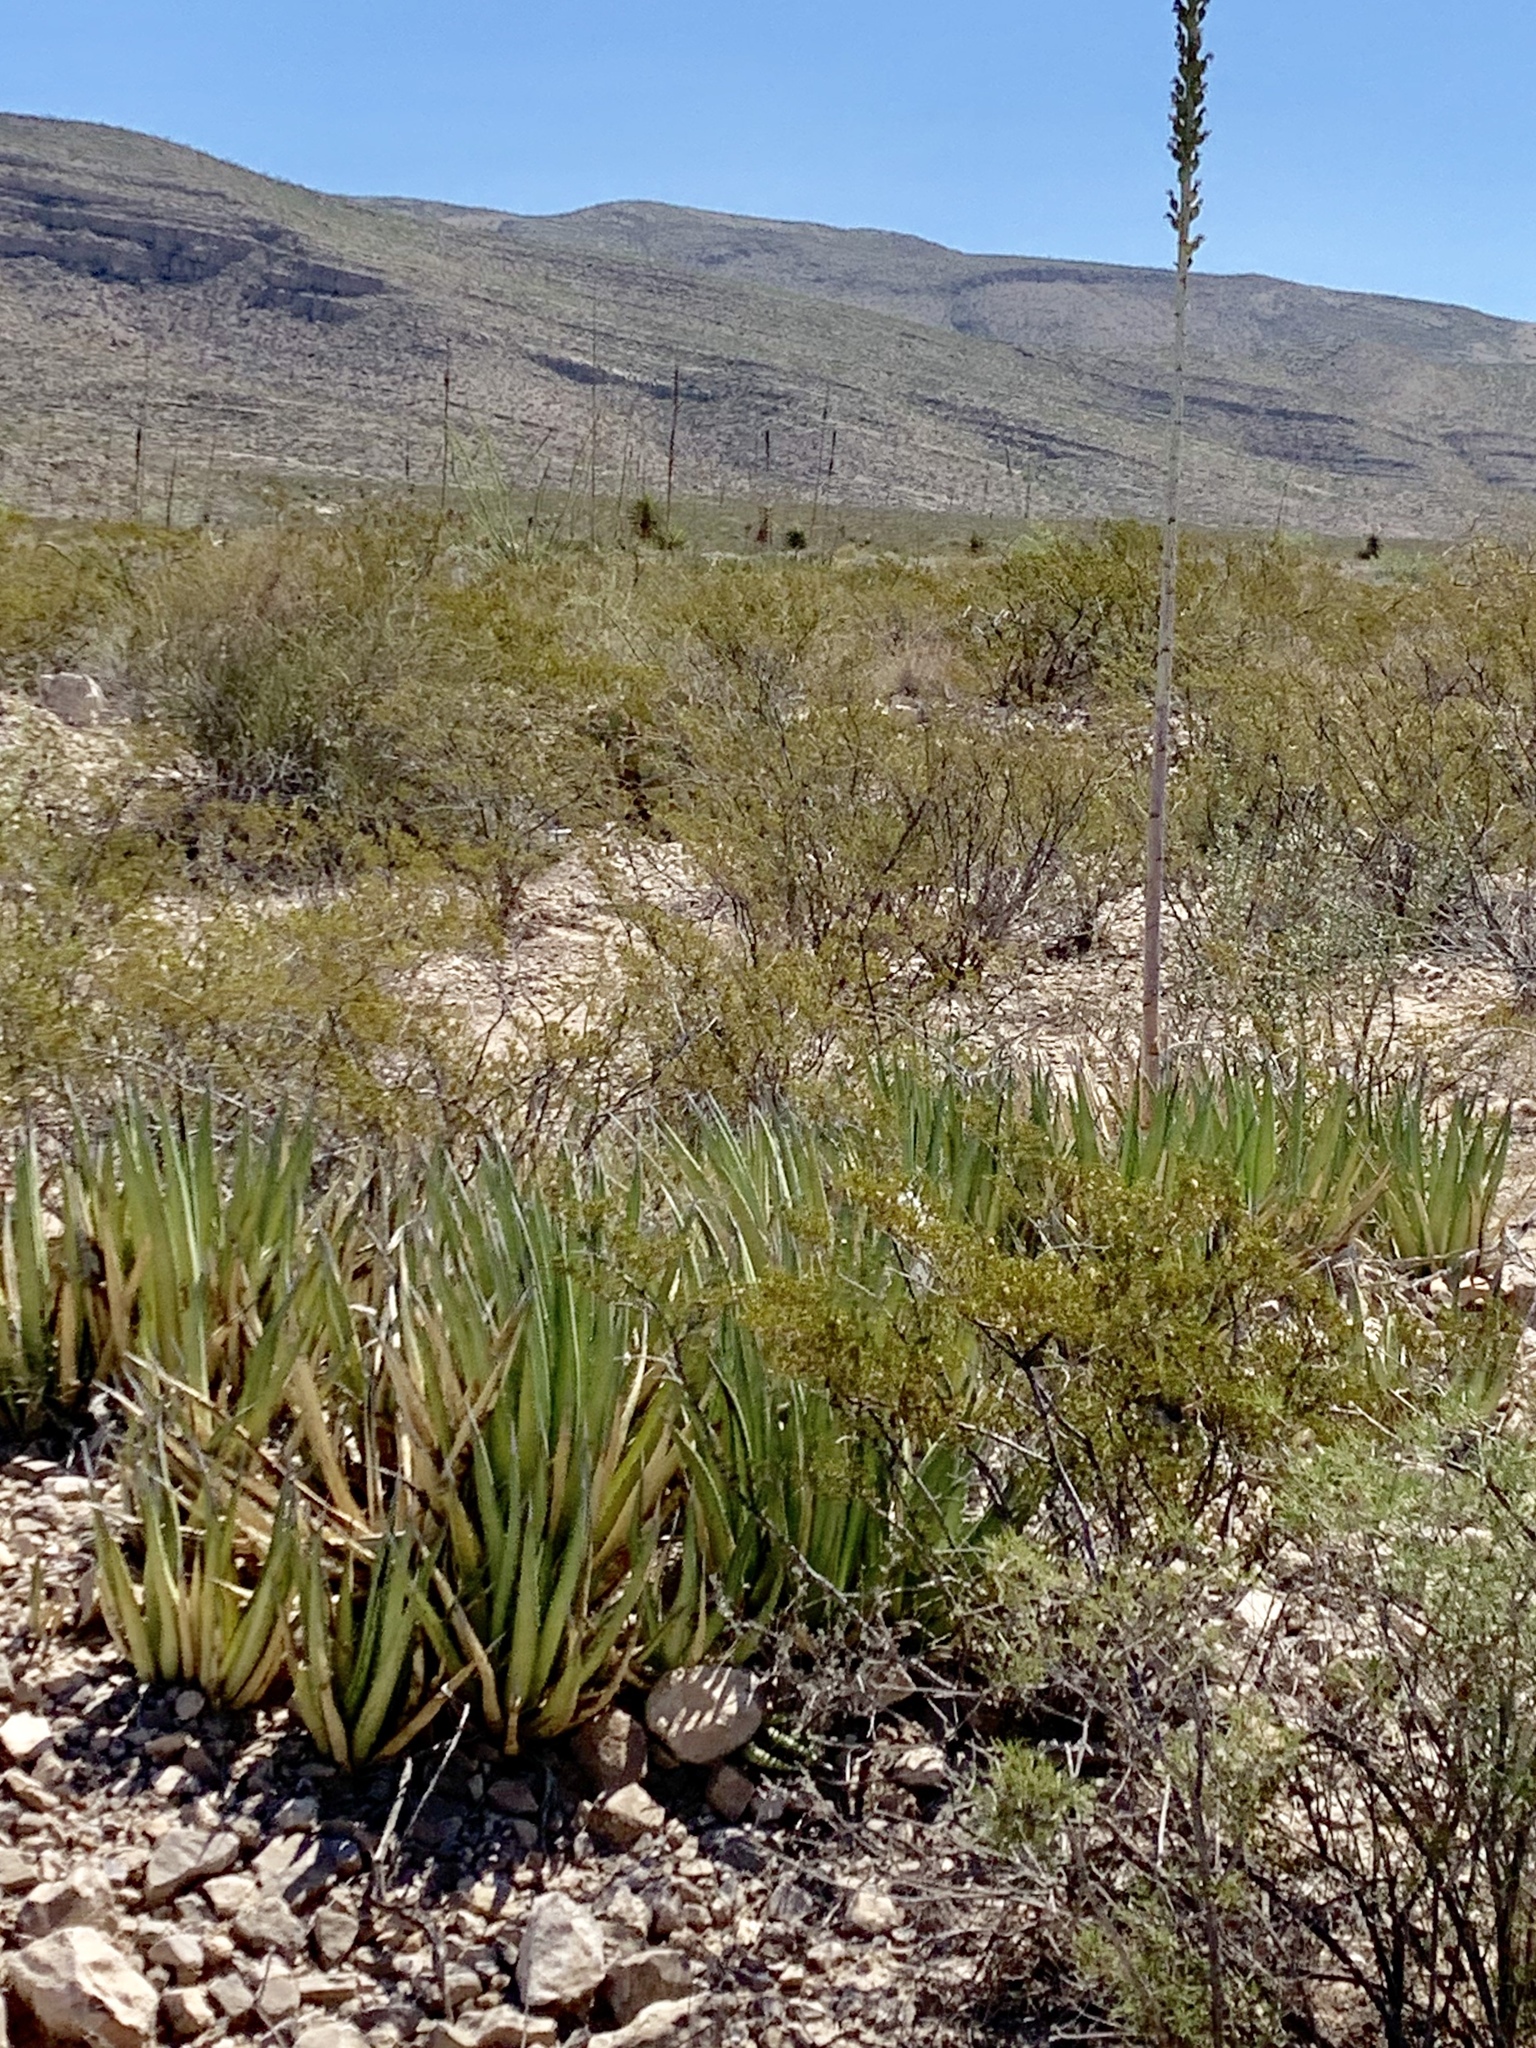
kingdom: Plantae
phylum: Tracheophyta
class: Liliopsida
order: Asparagales
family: Asparagaceae
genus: Agave
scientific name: Agave lechuguilla
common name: Lecheguilla agave
